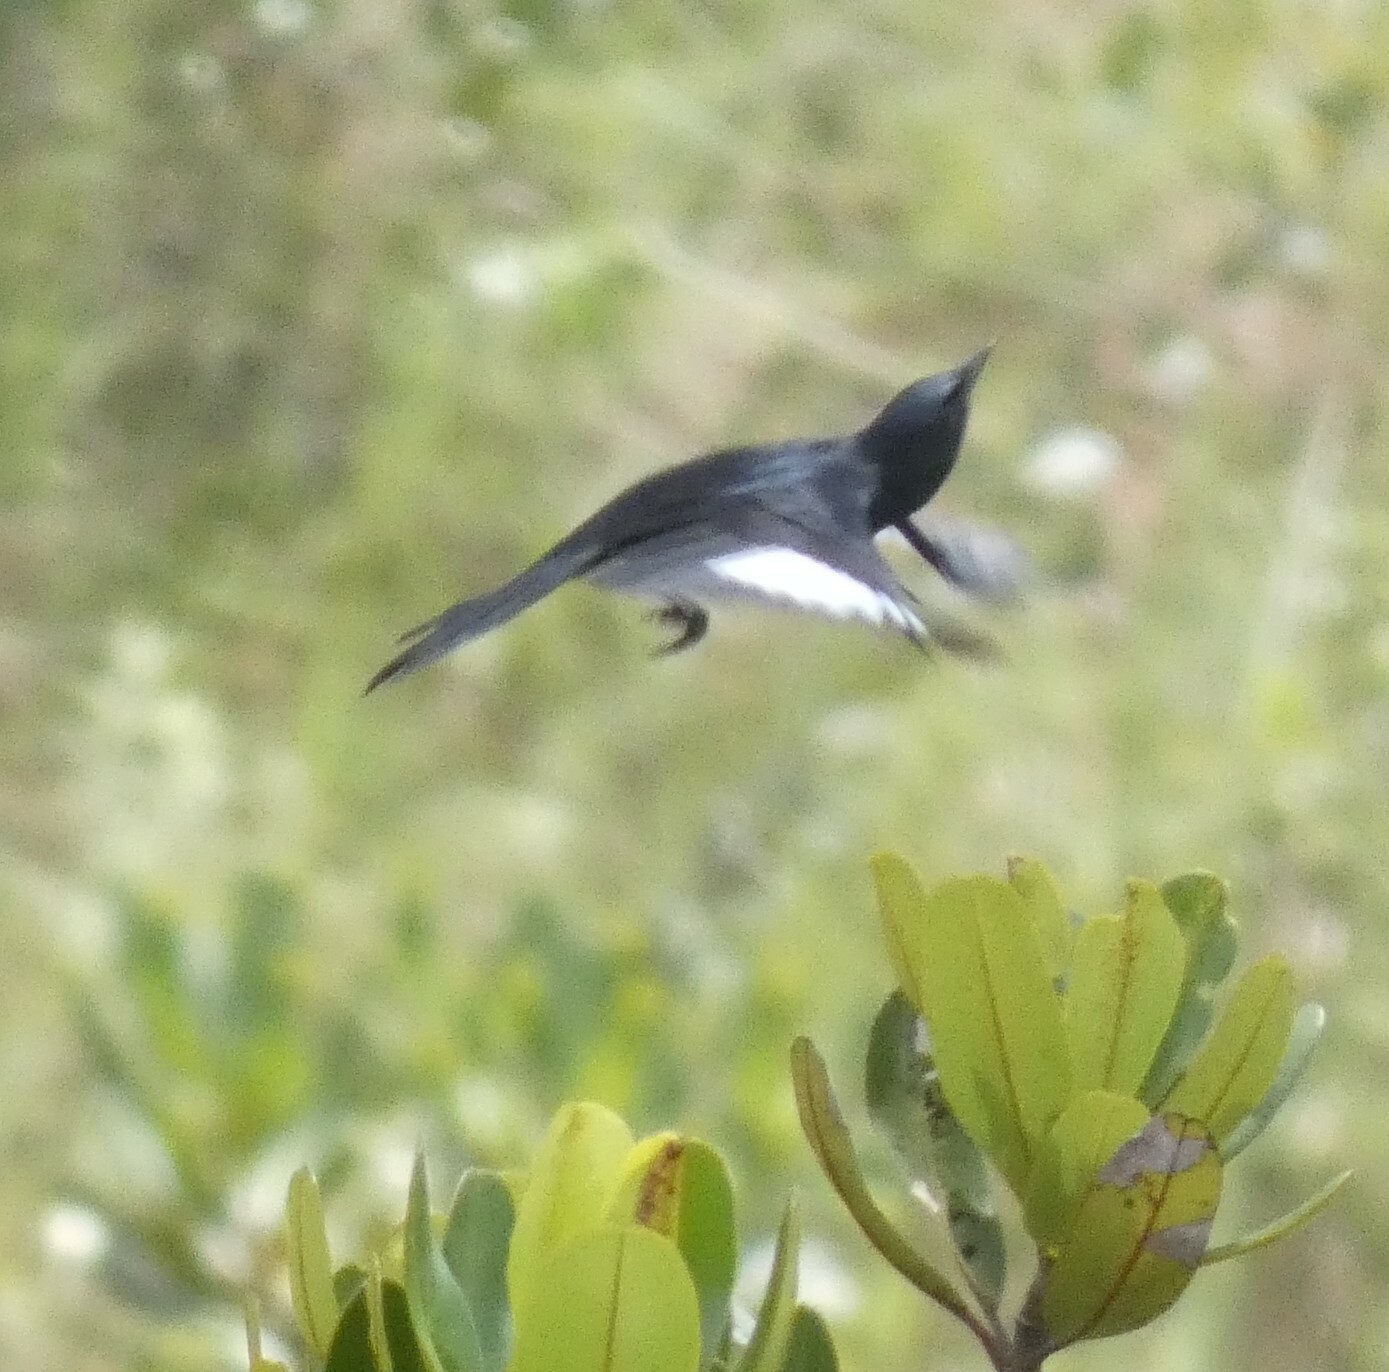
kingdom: Animalia
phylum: Chordata
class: Aves
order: Passeriformes
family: Tyrannidae
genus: Knipolegus
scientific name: Knipolegus lophotes
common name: Crested black tyrant
